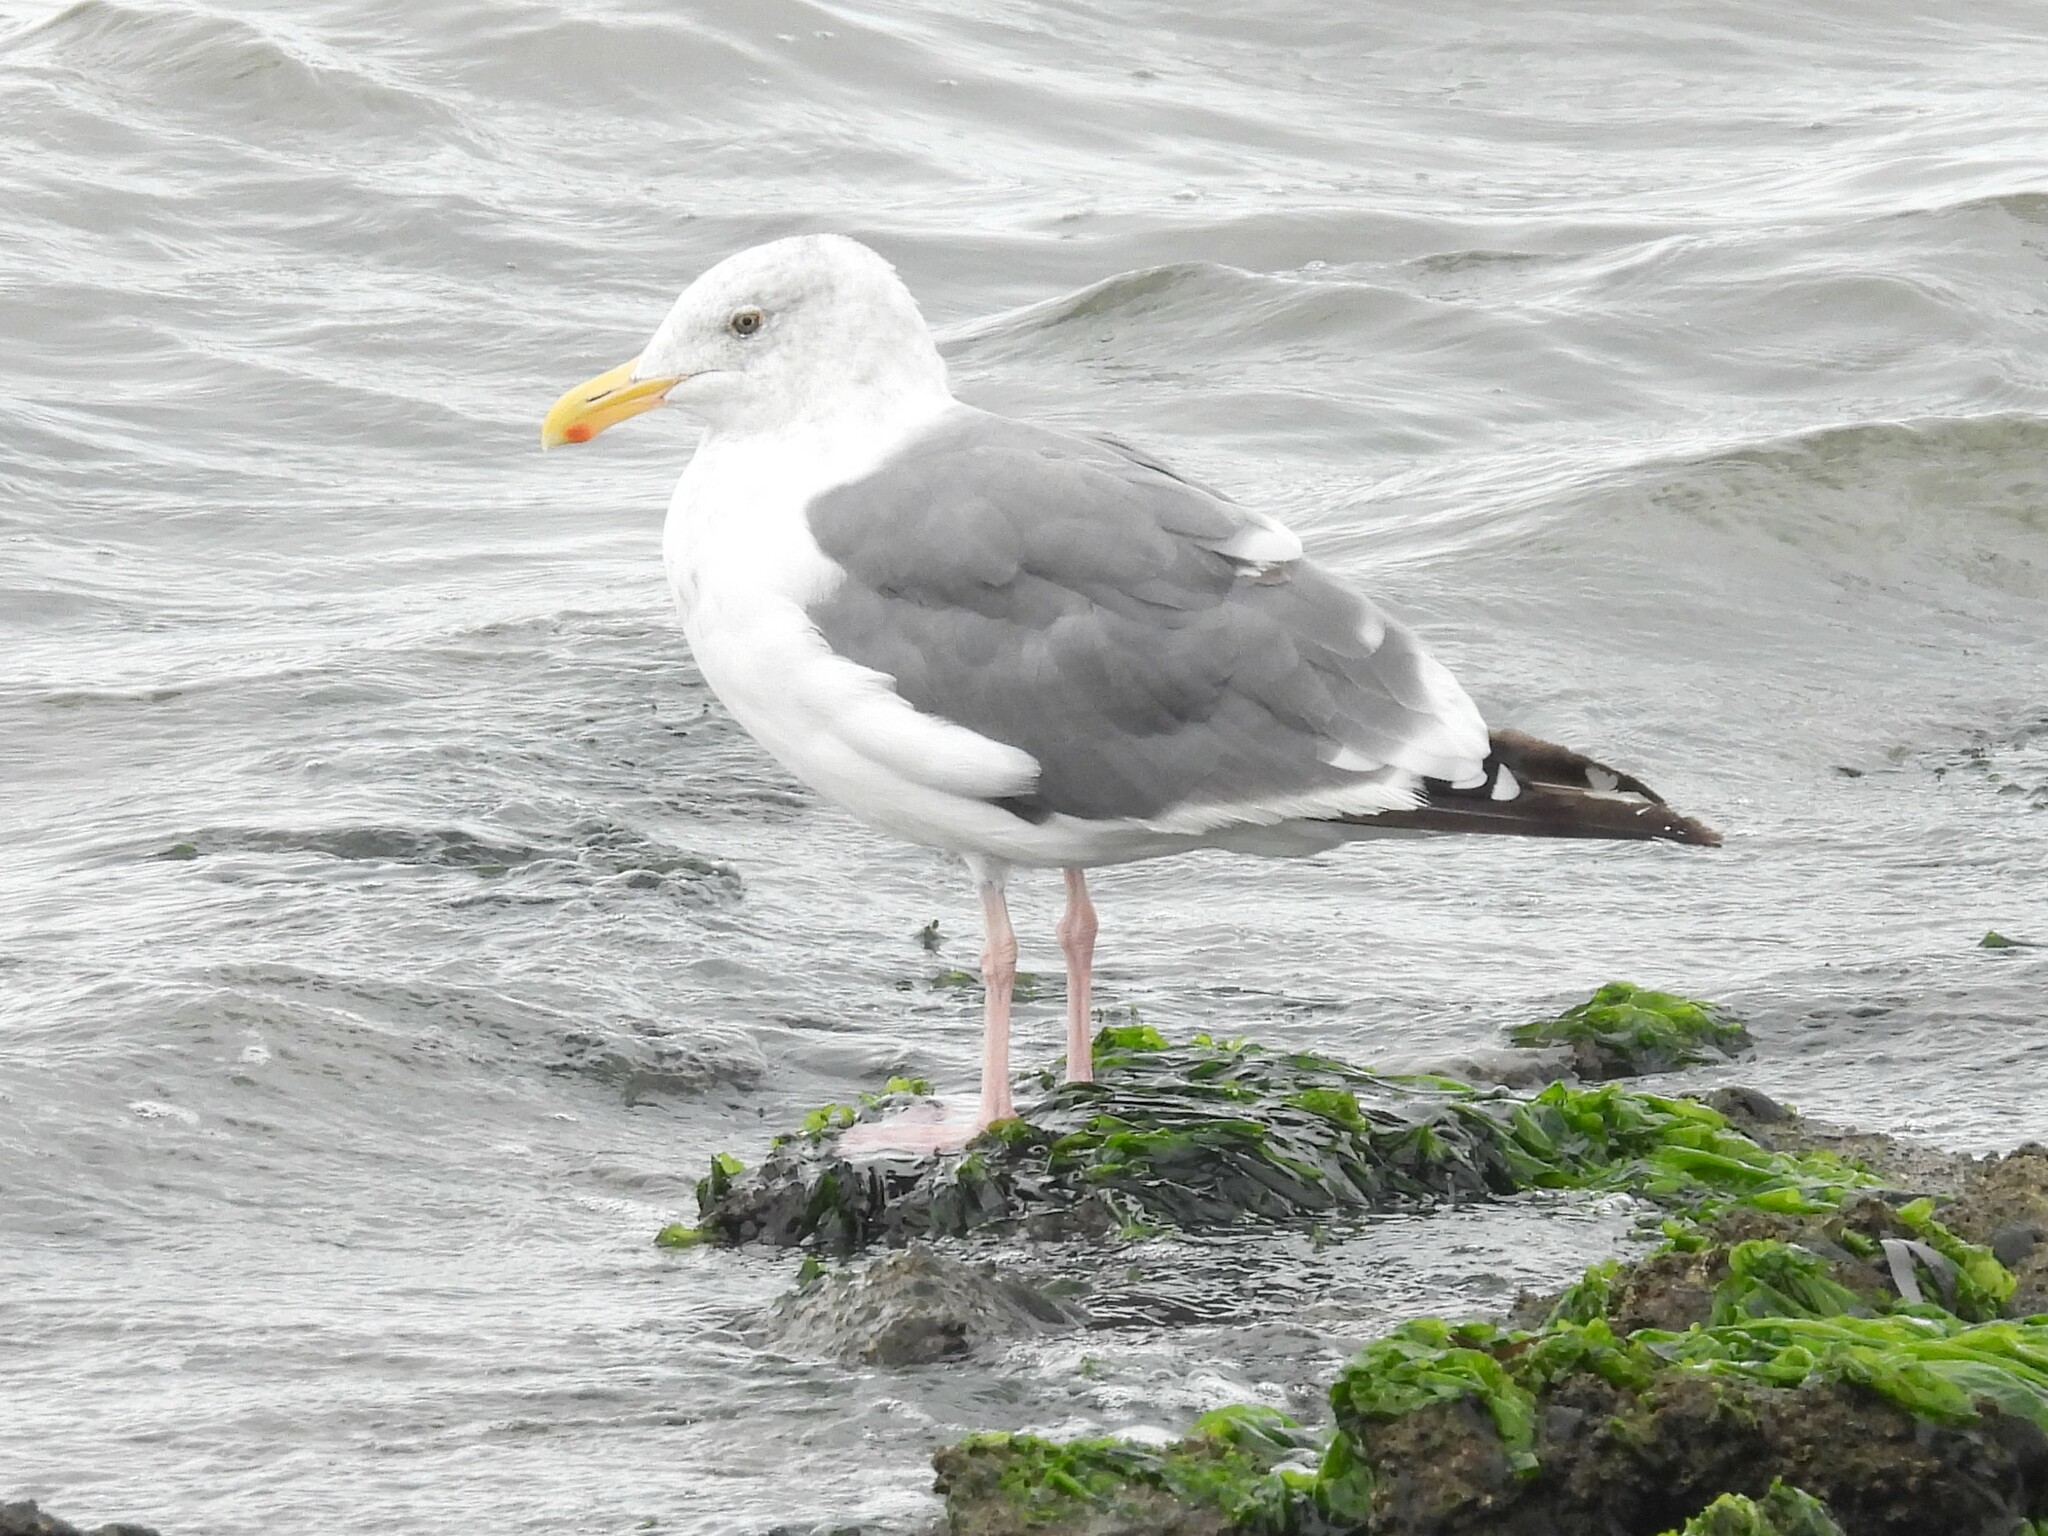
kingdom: Animalia
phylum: Chordata
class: Aves
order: Charadriiformes
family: Laridae
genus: Larus
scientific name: Larus occidentalis
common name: Western gull
